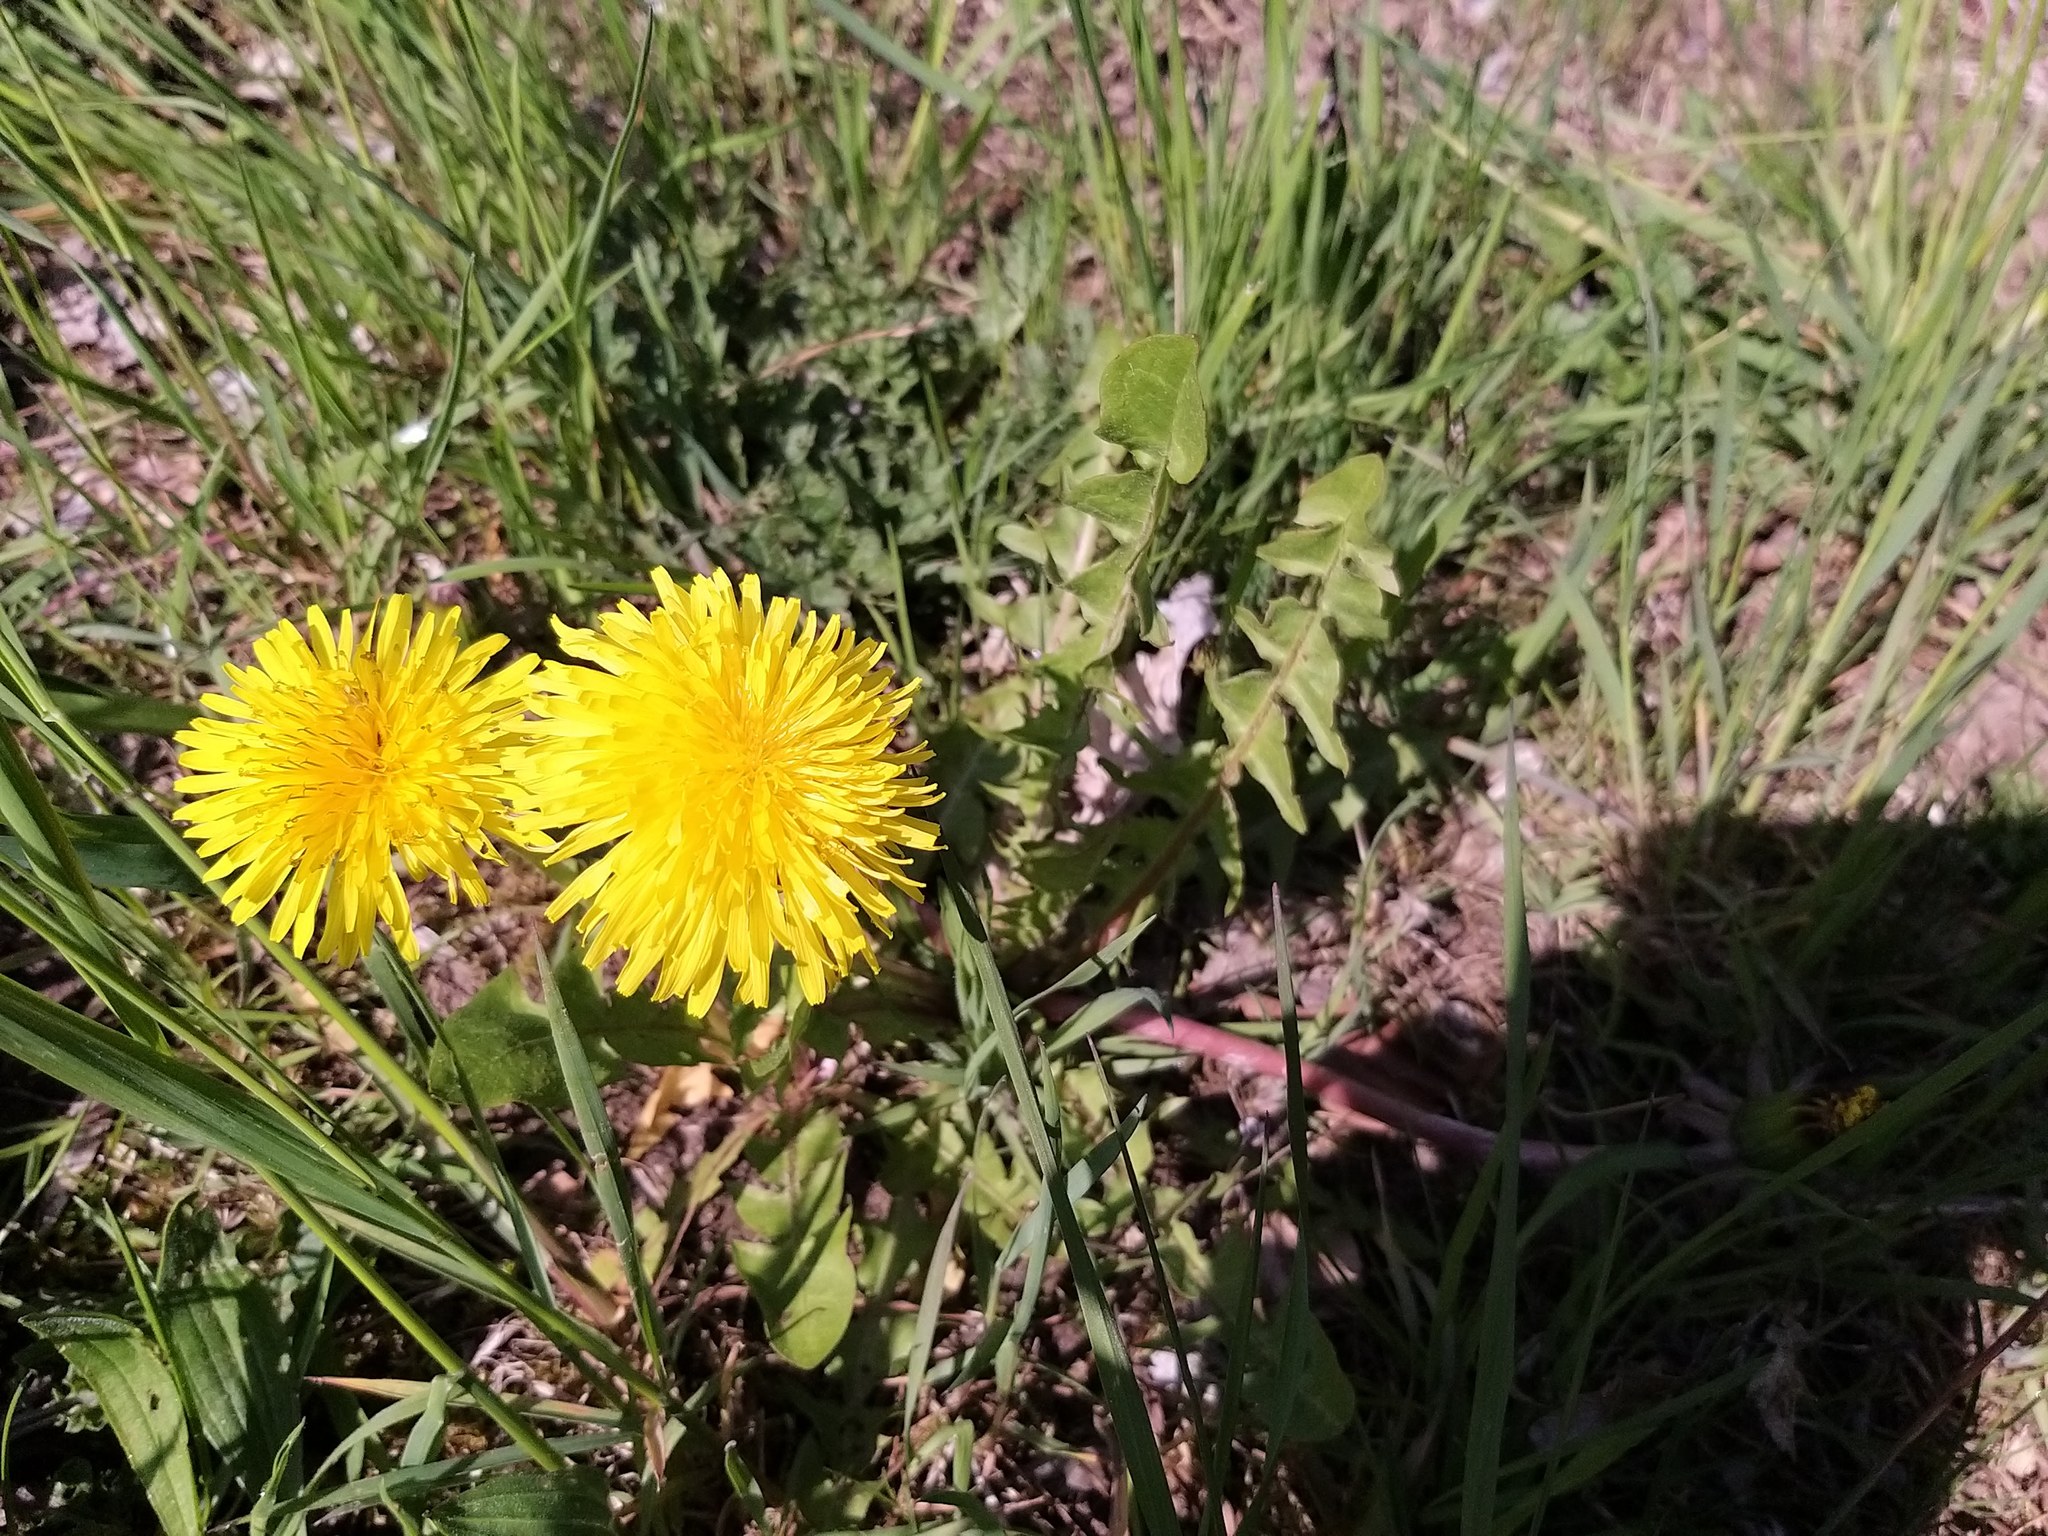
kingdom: Plantae
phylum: Tracheophyta
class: Magnoliopsida
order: Asterales
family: Asteraceae
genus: Taraxacum
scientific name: Taraxacum
